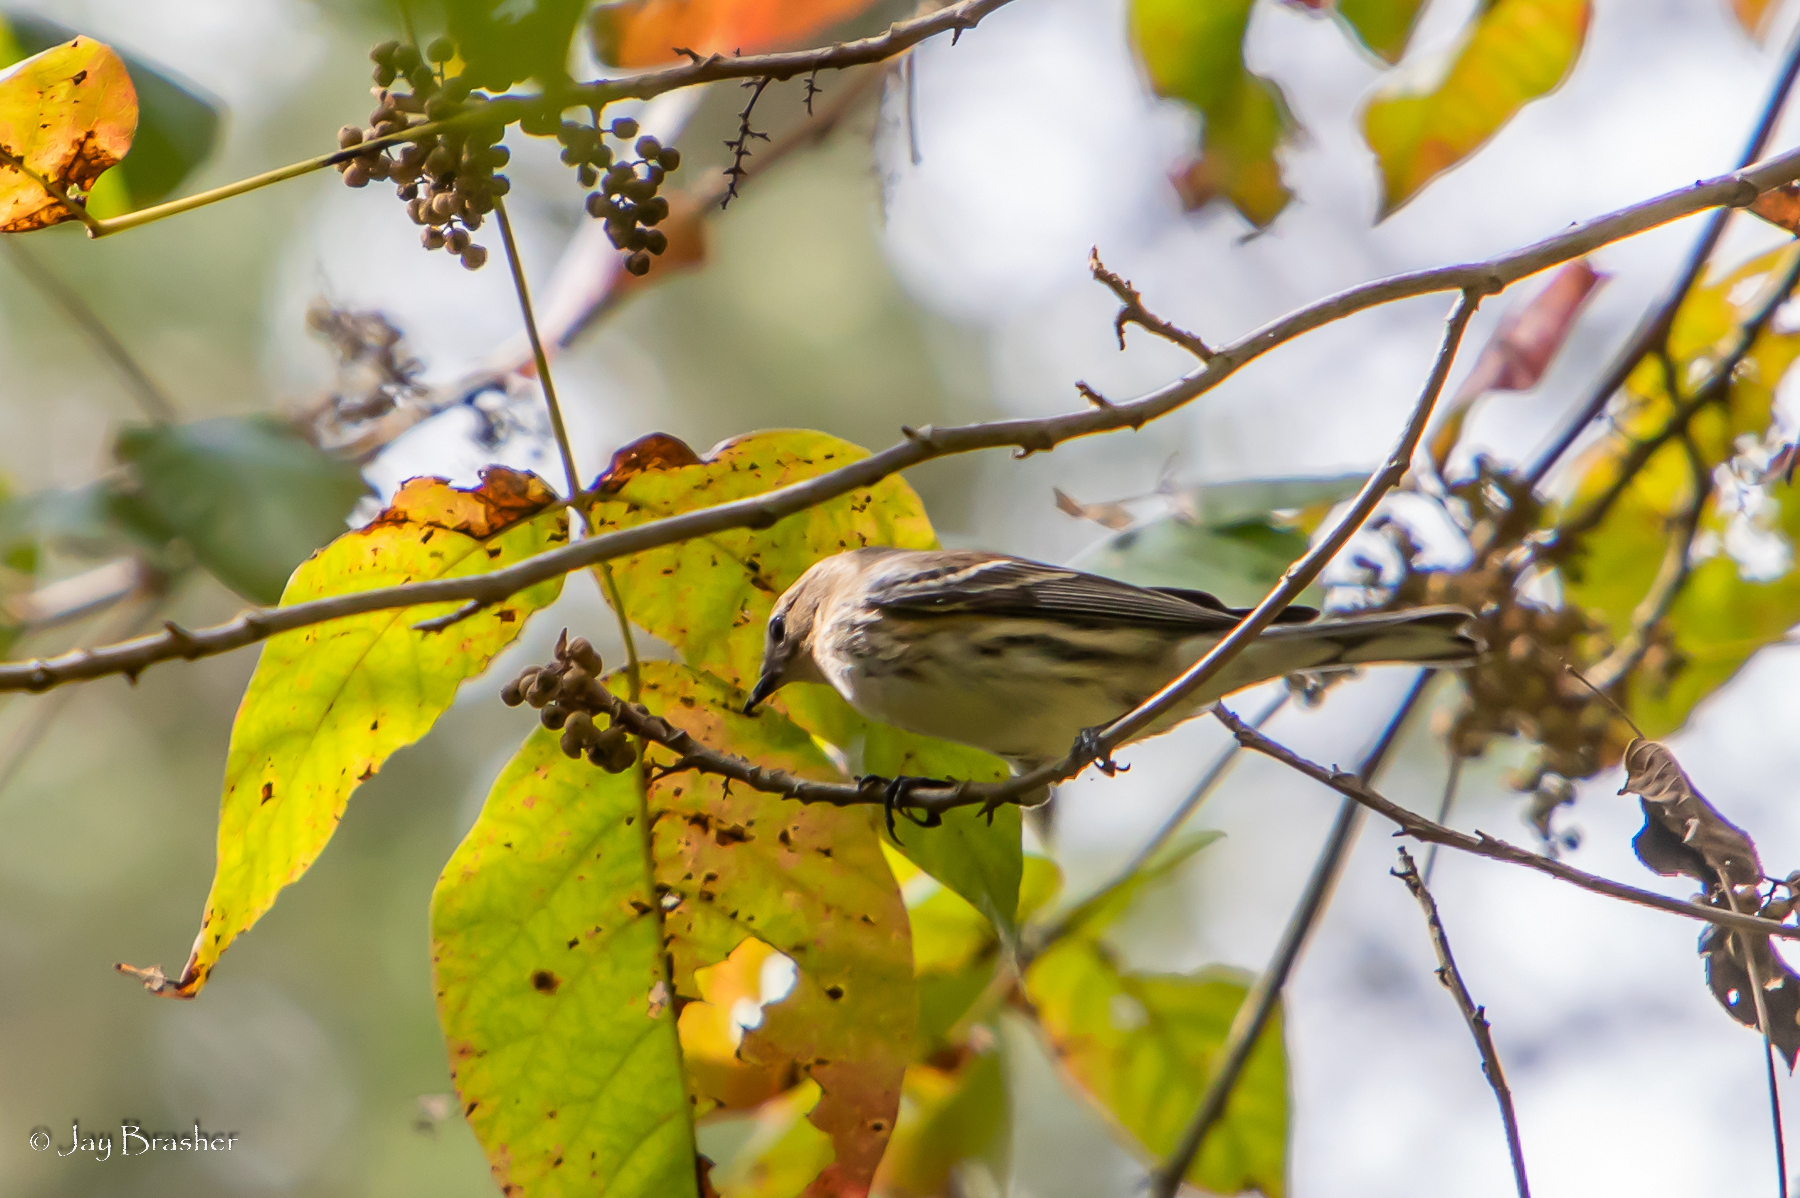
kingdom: Animalia
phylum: Chordata
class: Aves
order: Passeriformes
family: Parulidae
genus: Setophaga
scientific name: Setophaga coronata
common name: Myrtle warbler
